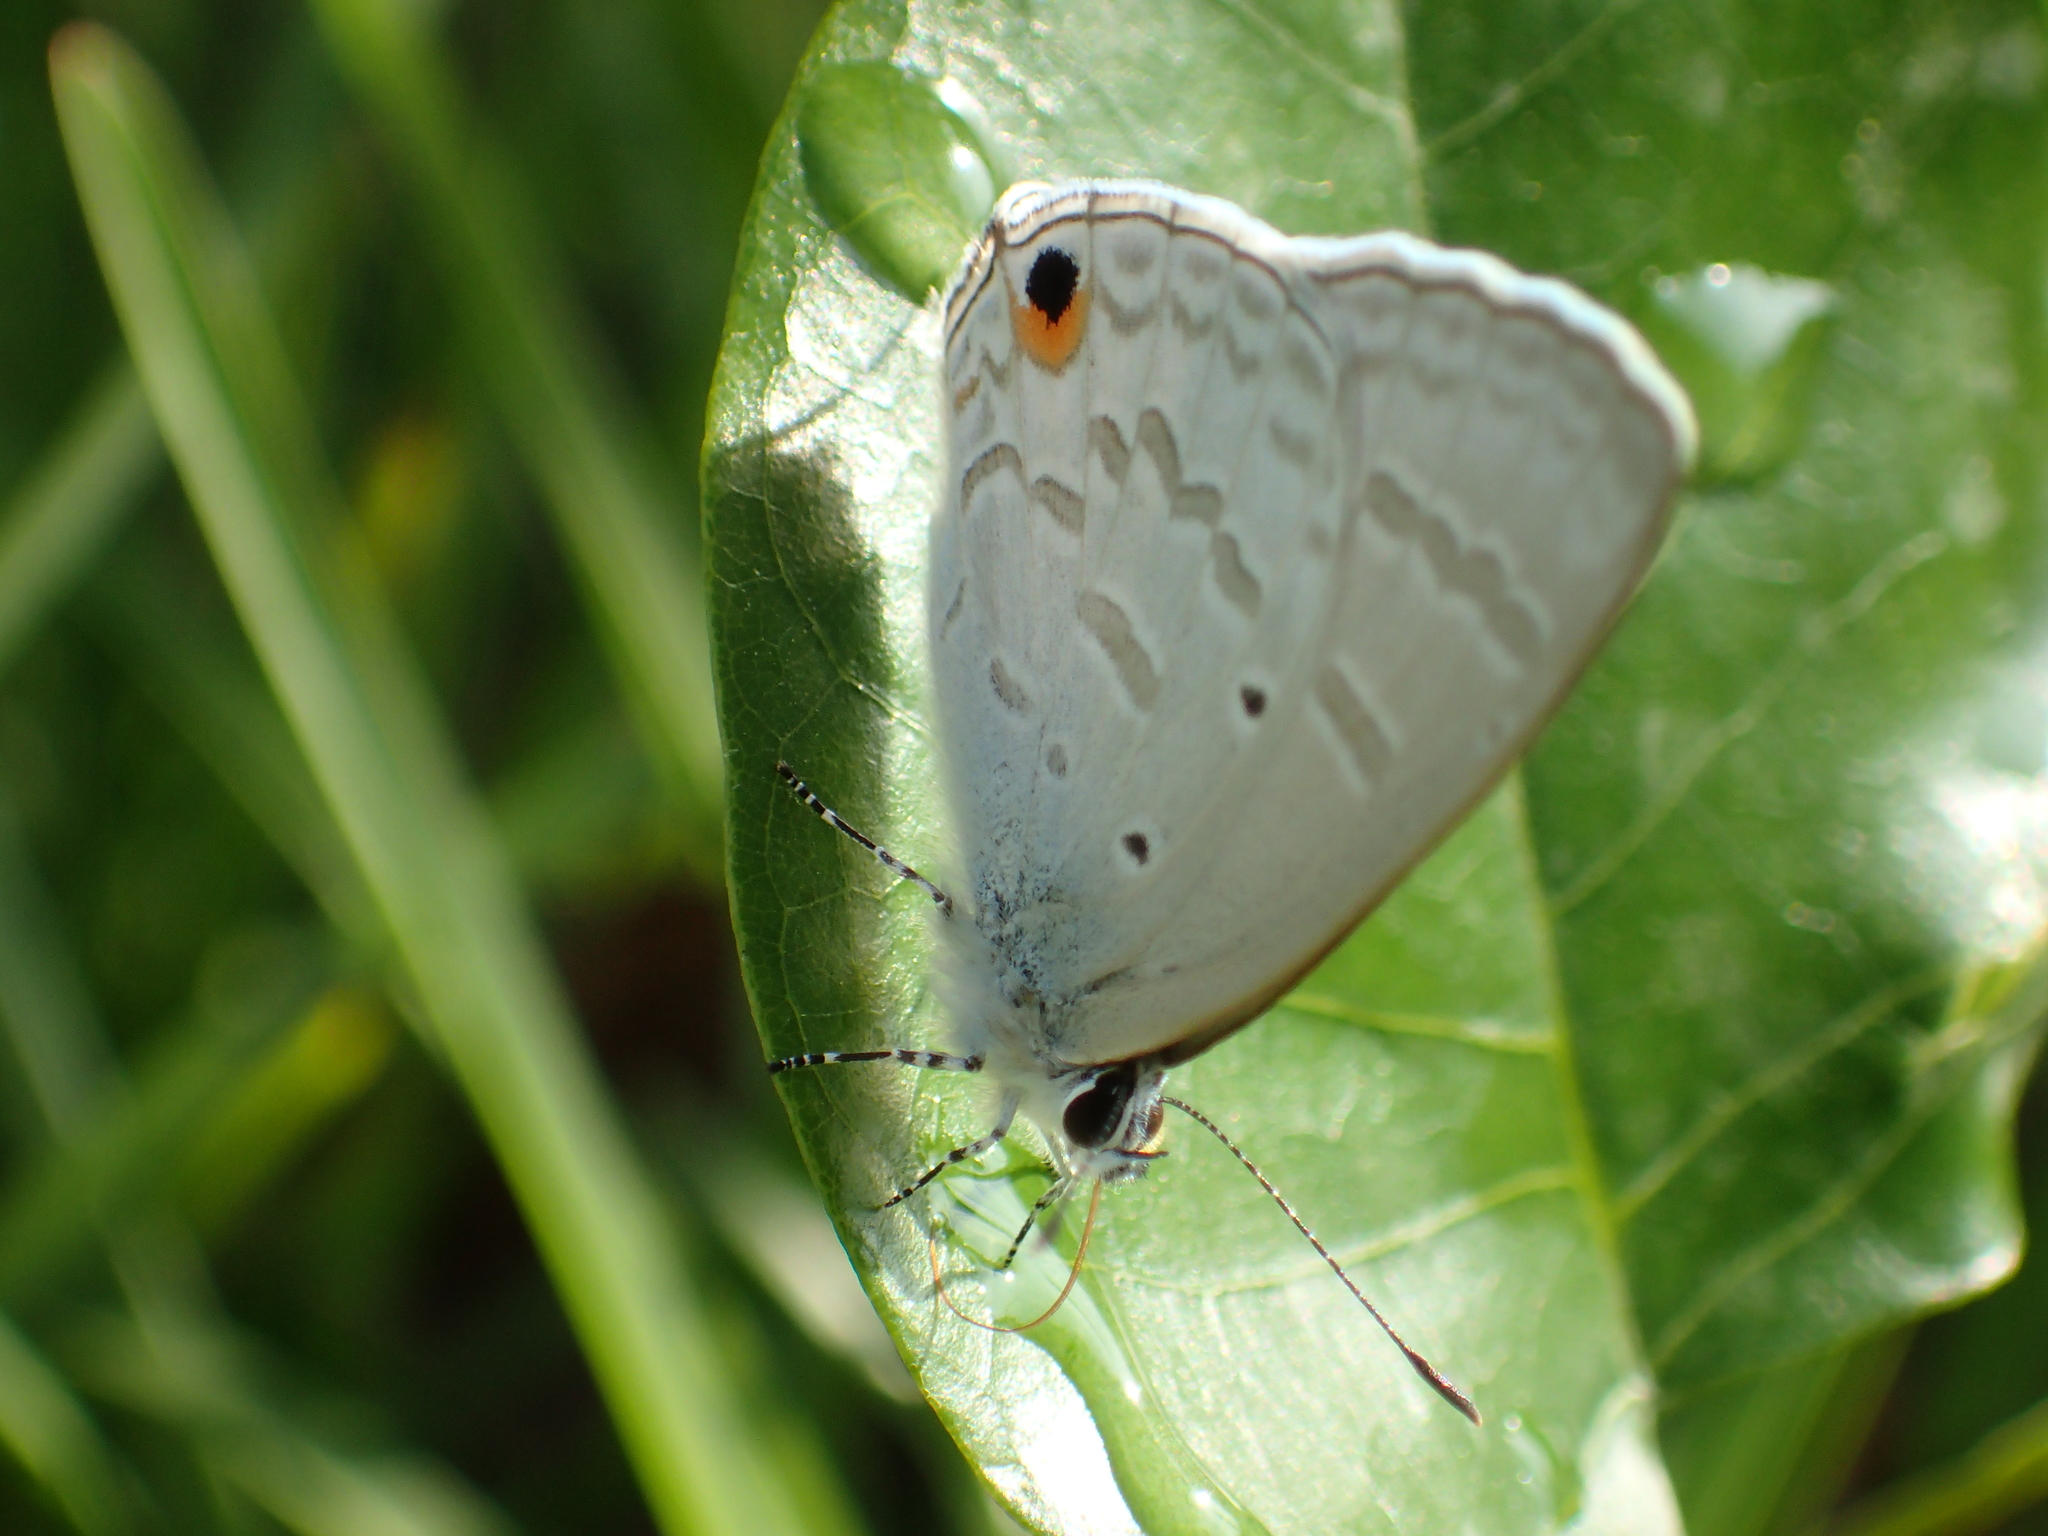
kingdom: Animalia
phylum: Arthropoda
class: Insecta
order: Lepidoptera
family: Lycaenidae
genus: Catochrysops
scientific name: Catochrysops panormus
